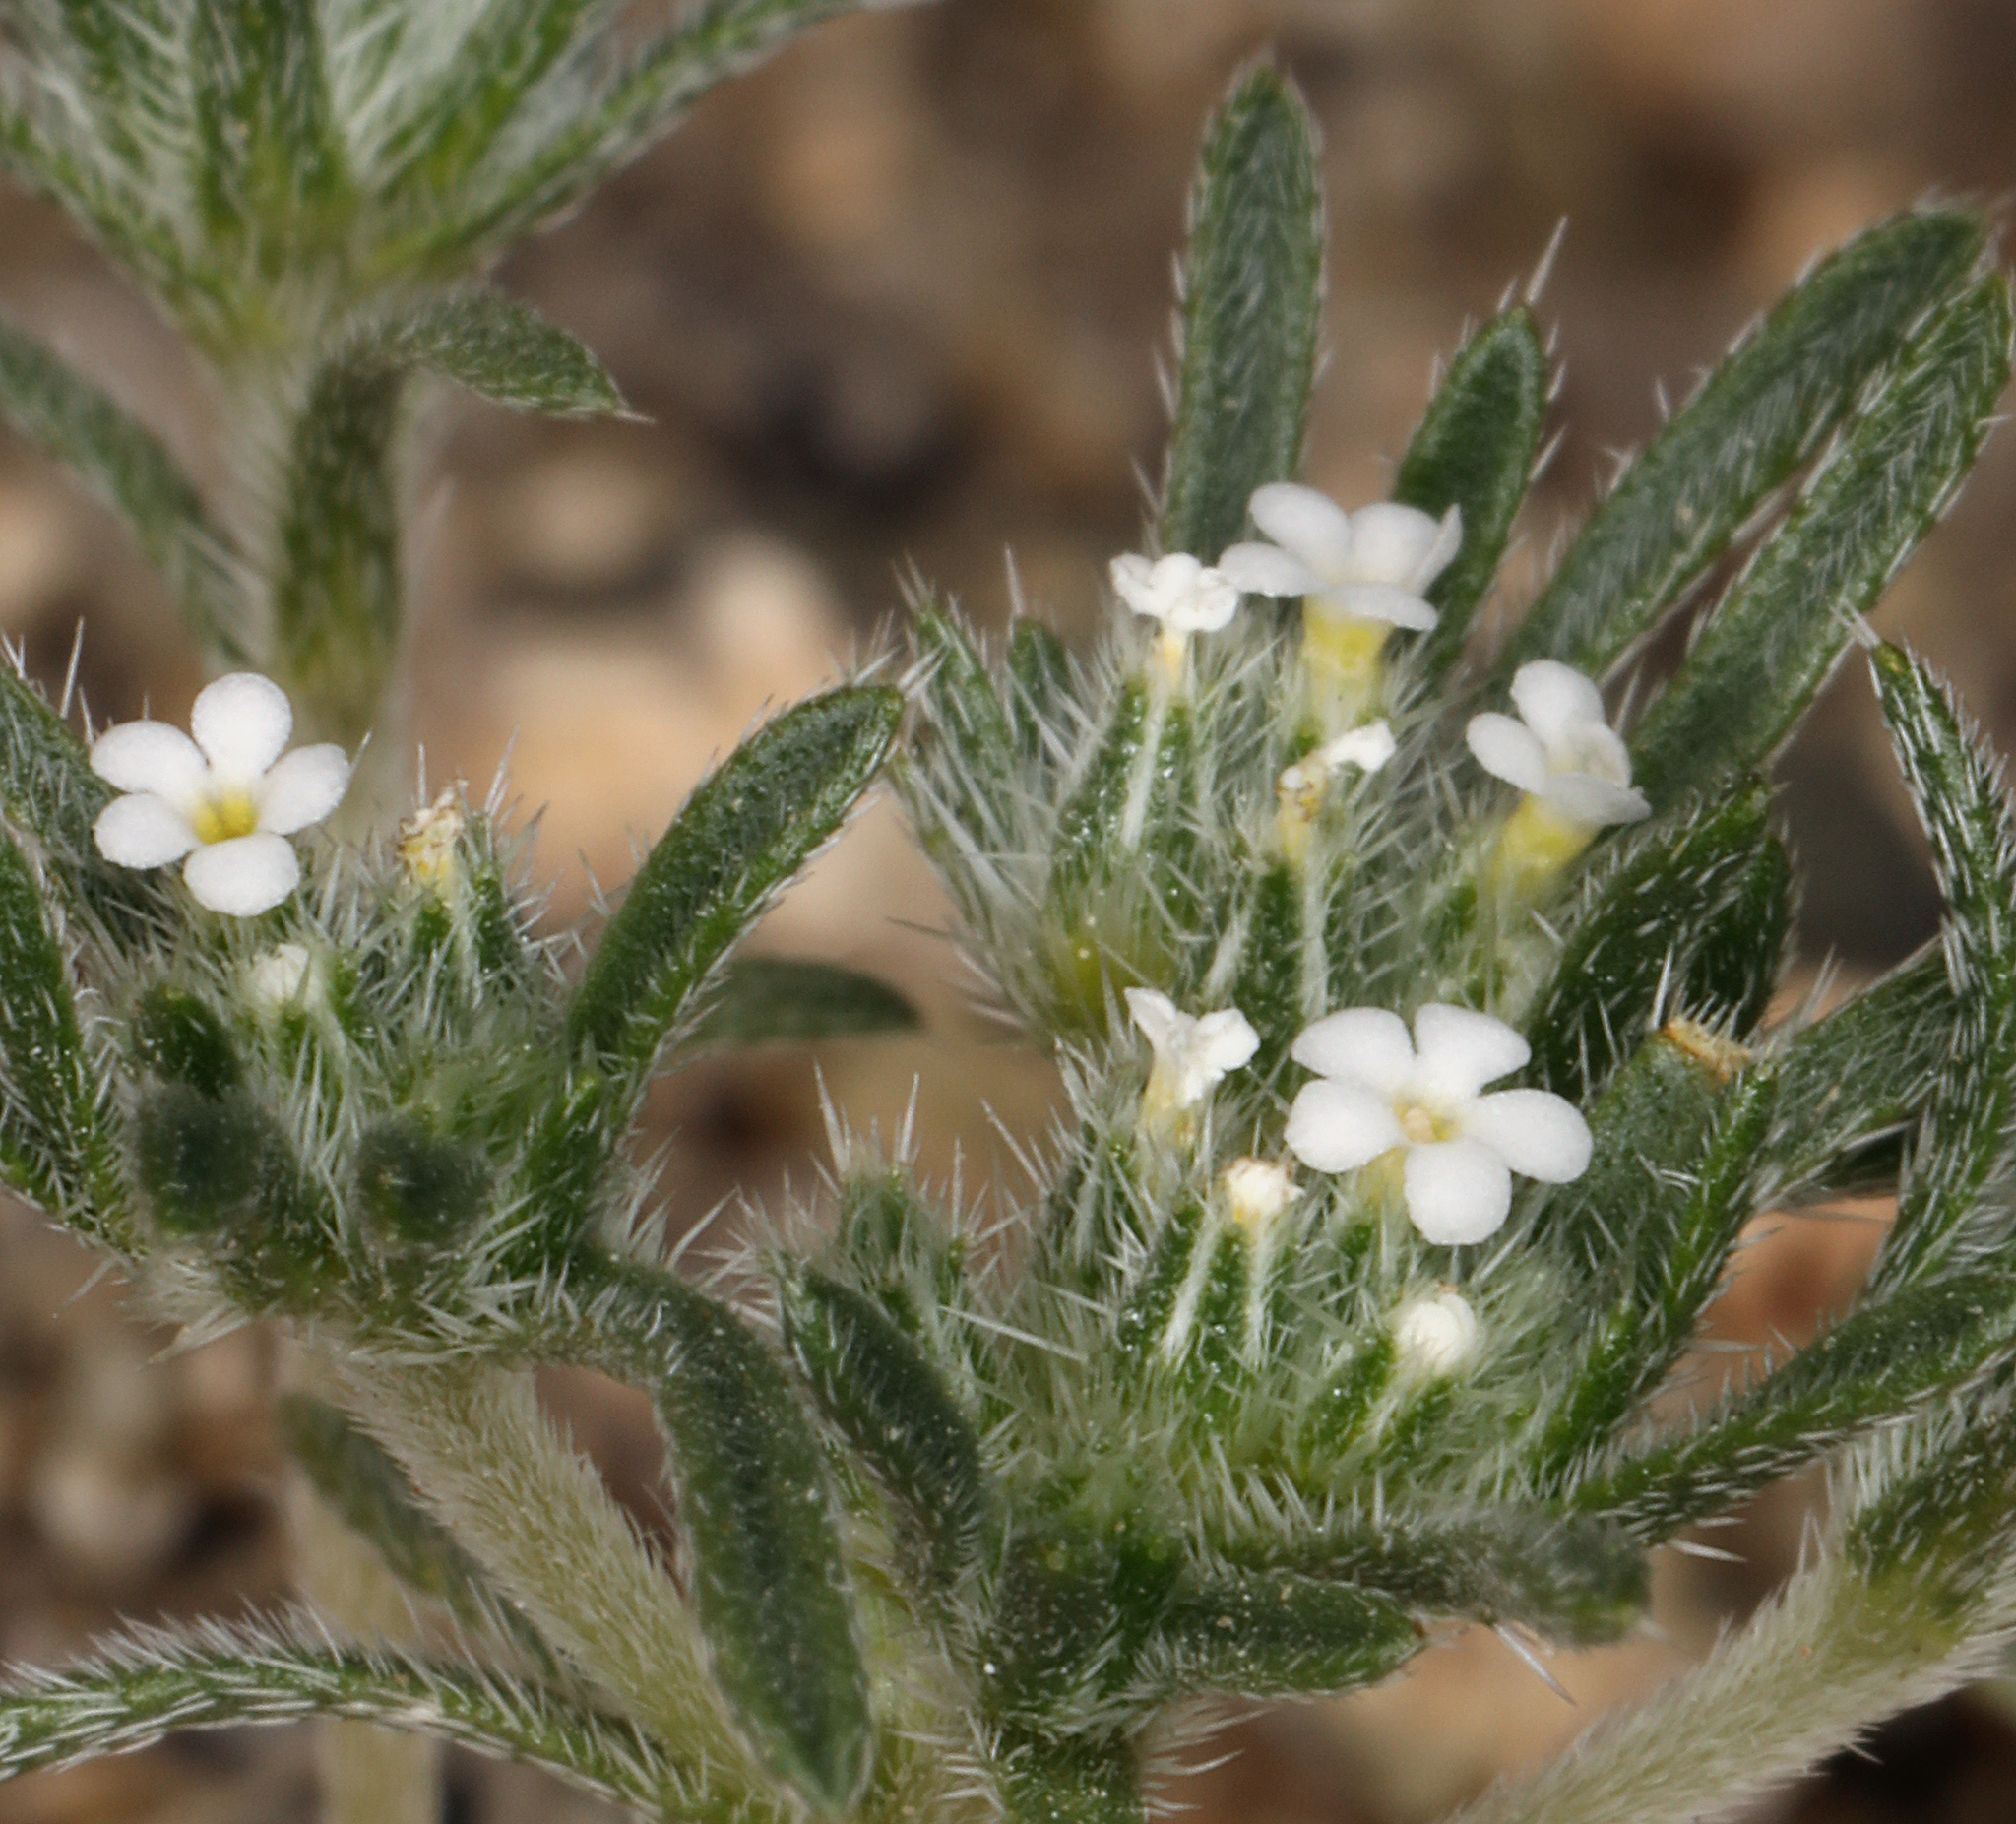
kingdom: Plantae
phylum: Tracheophyta
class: Magnoliopsida
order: Boraginales
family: Boraginaceae
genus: Greeneocharis
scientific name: Greeneocharis circumscissa
